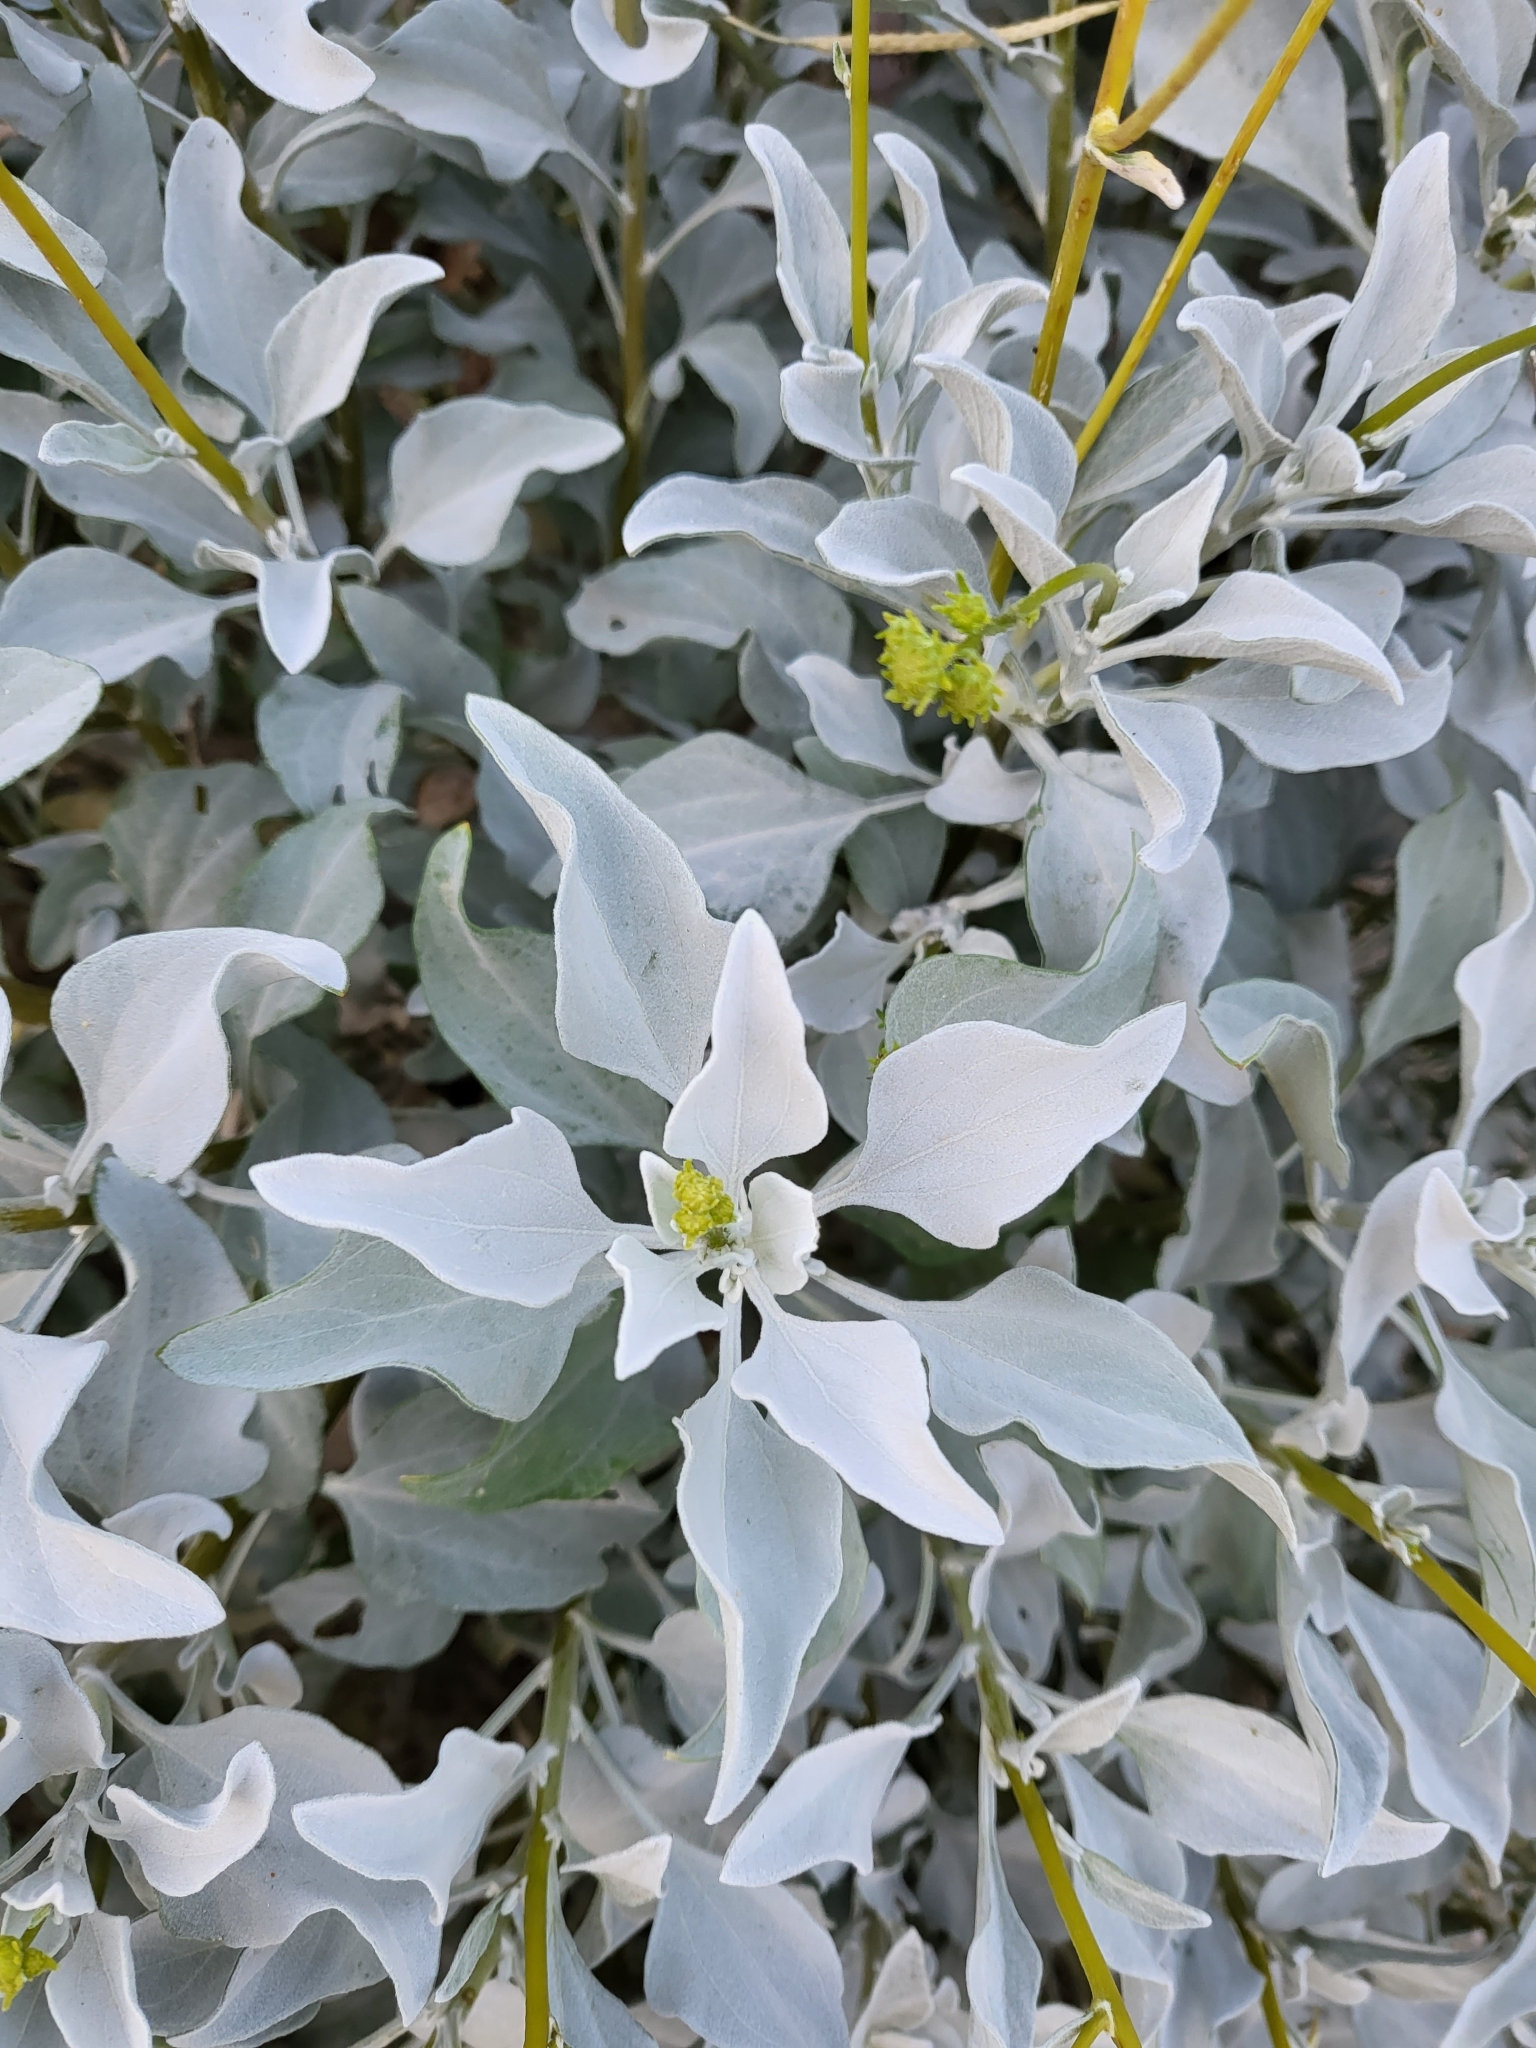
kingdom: Plantae
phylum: Tracheophyta
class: Magnoliopsida
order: Asterales
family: Asteraceae
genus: Encelia
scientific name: Encelia farinosa
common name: Brittlebush
